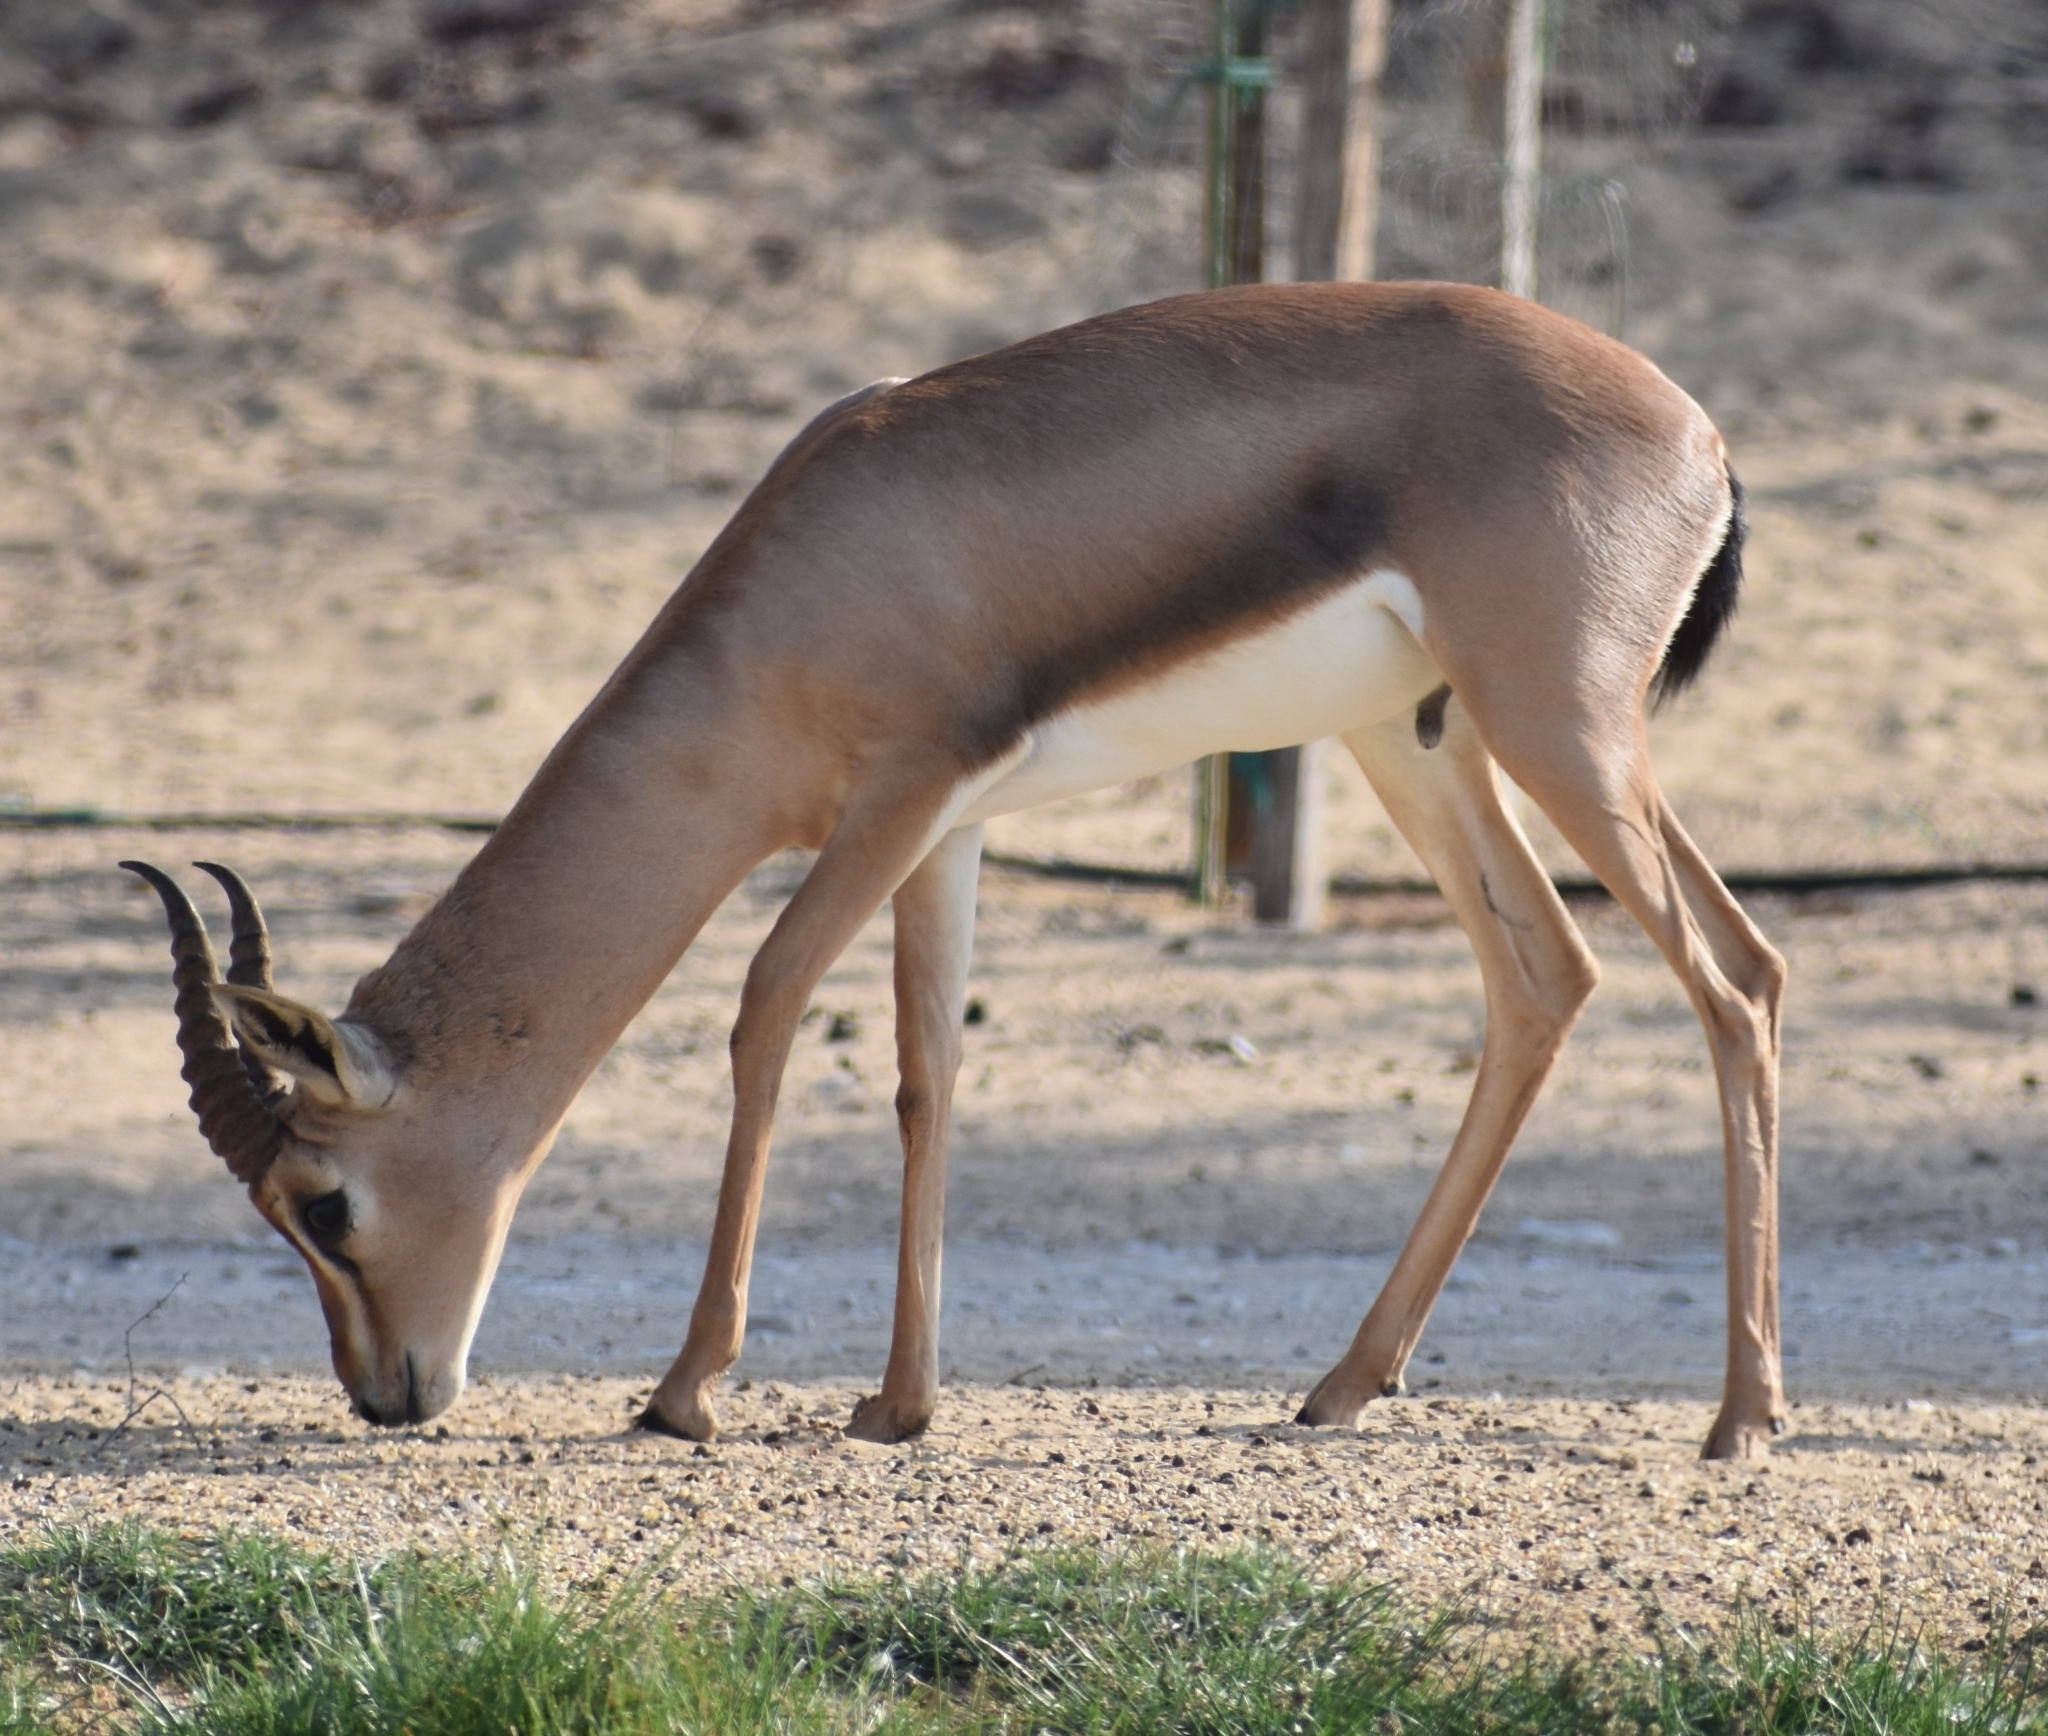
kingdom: Animalia
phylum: Chordata
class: Mammalia
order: Artiodactyla
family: Bovidae
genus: Gazella
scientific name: Gazella arabica
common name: Arabian gazelle
